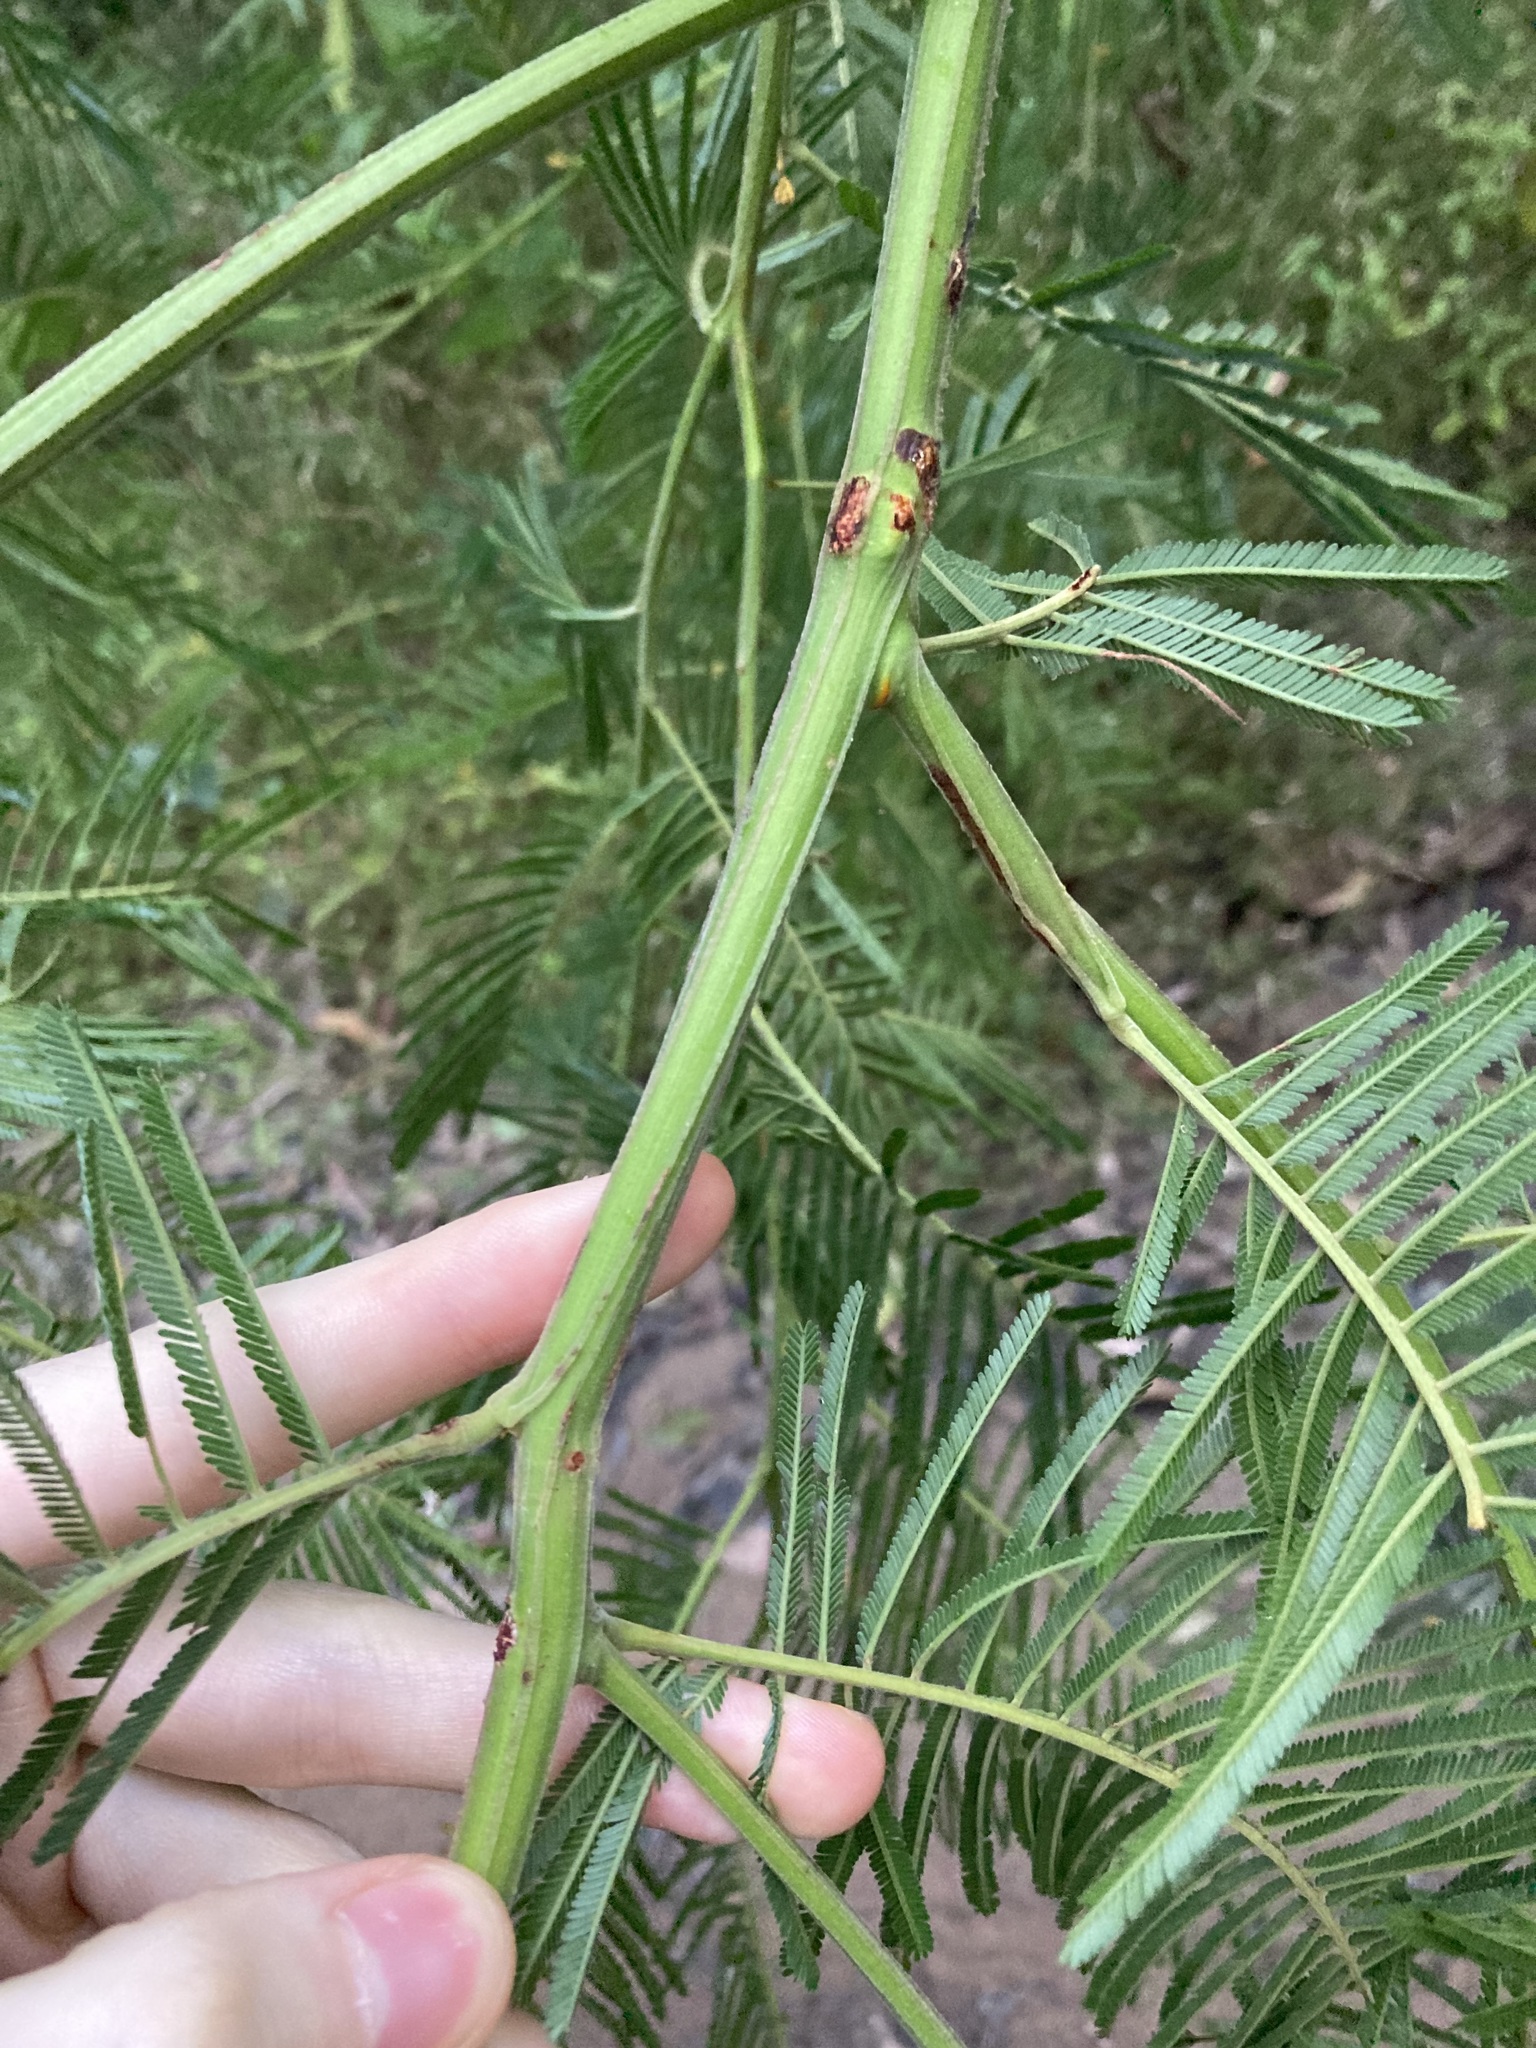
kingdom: Plantae
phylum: Tracheophyta
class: Magnoliopsida
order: Fabales
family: Fabaceae
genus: Acacia
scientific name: Acacia mearnsii
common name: Black wattle
